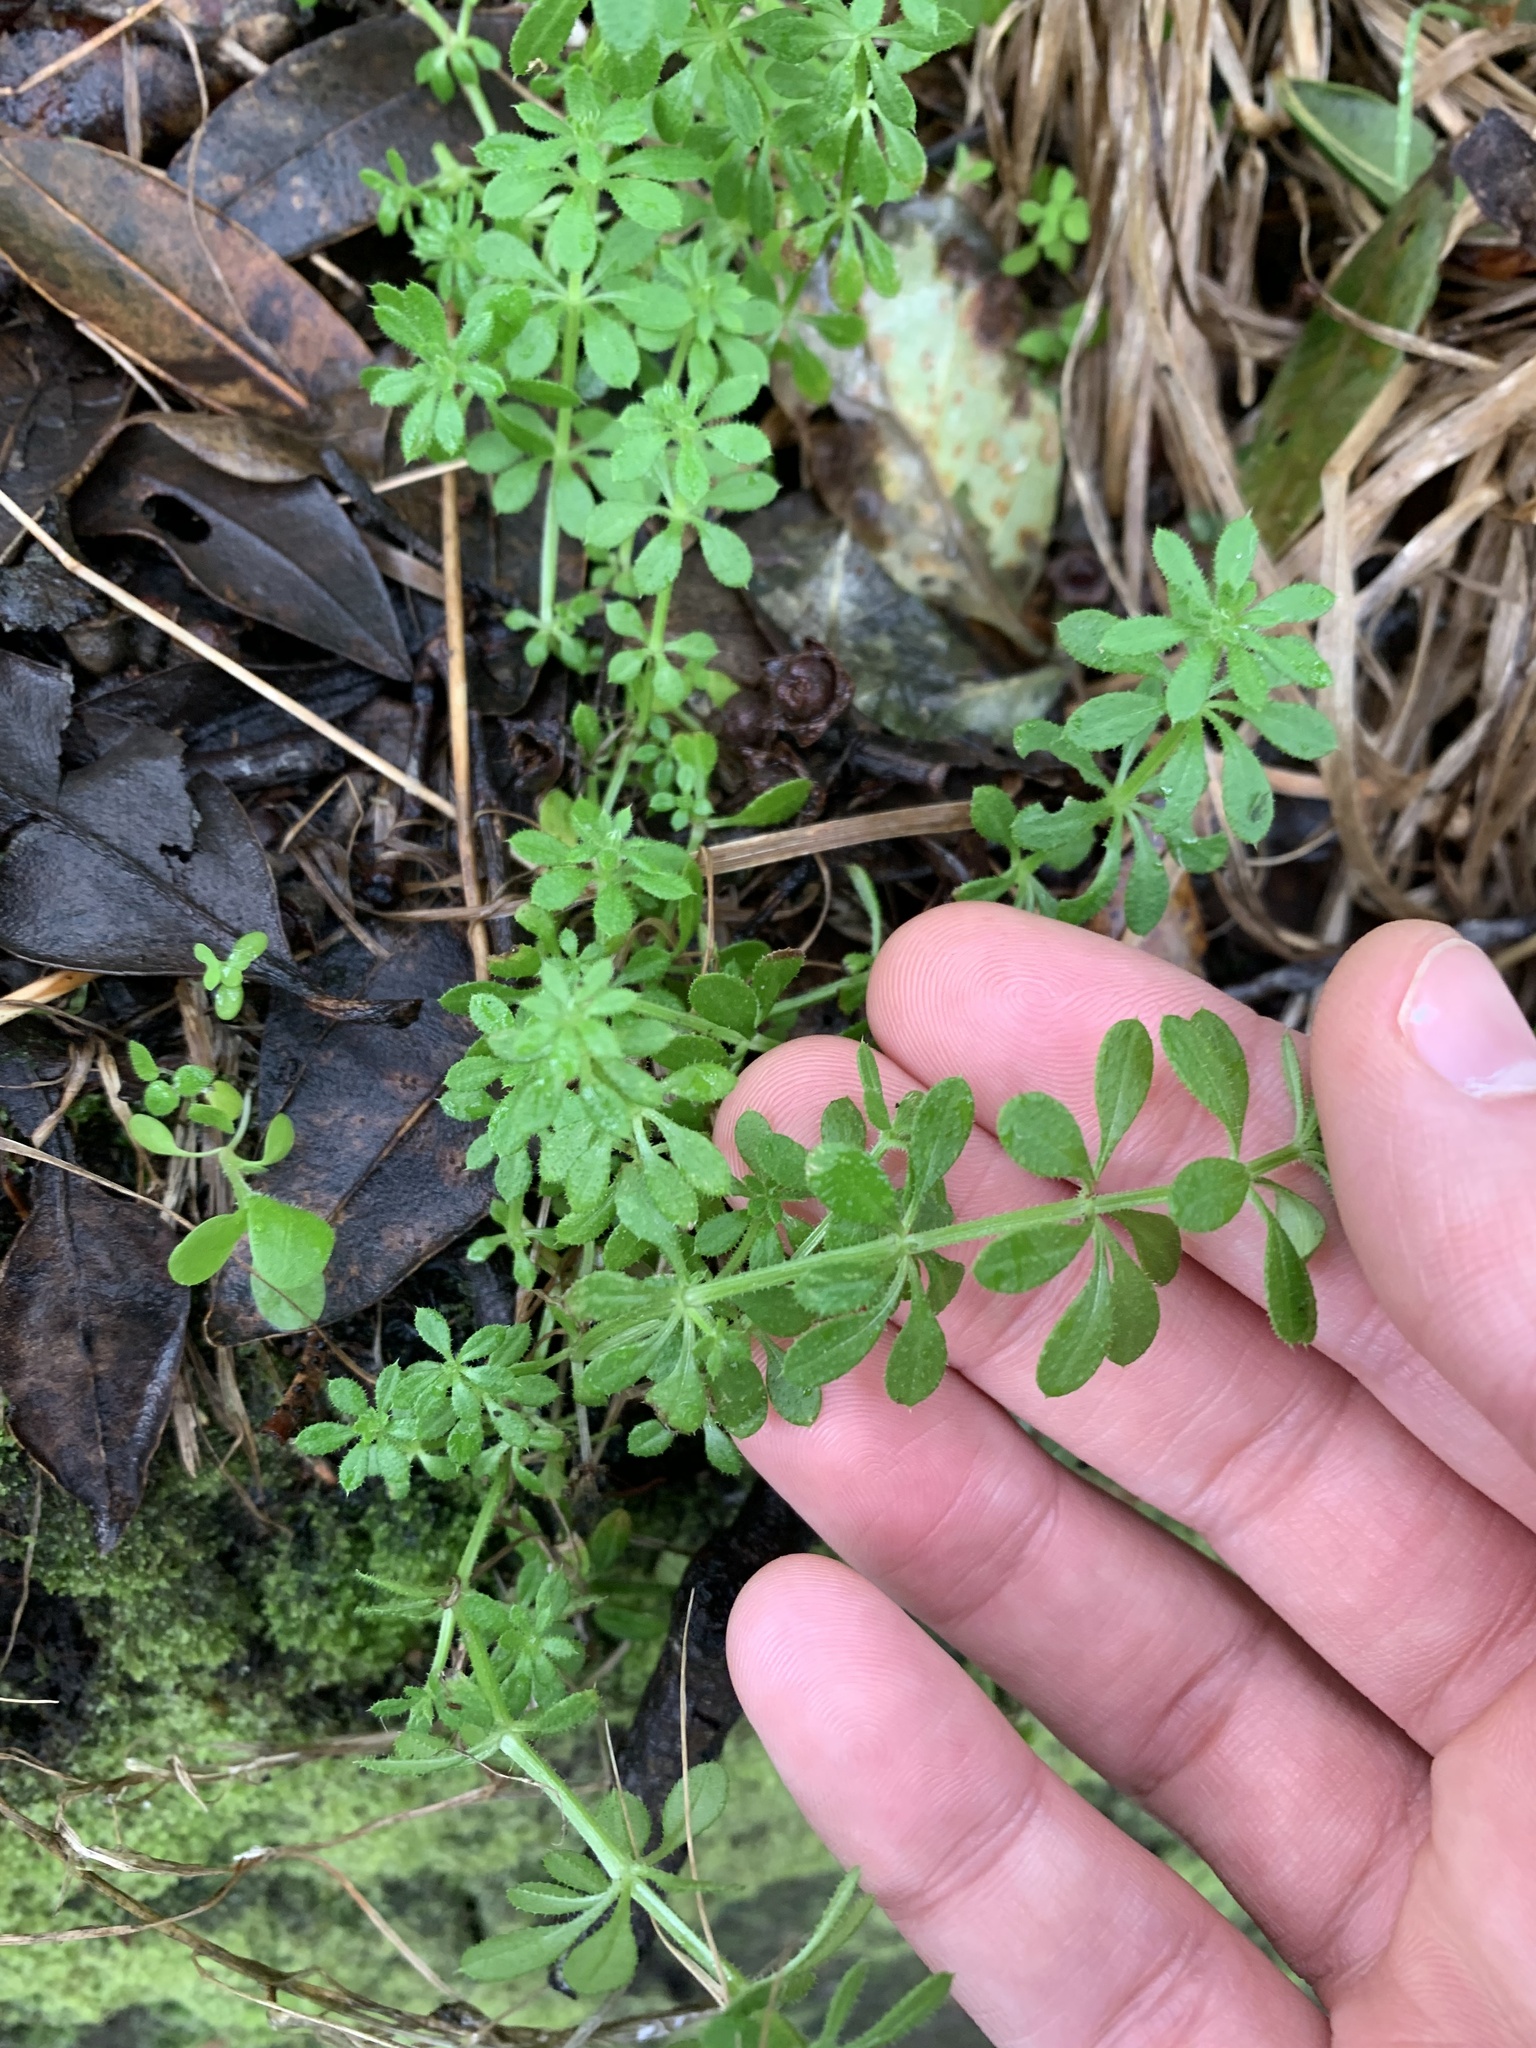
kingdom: Plantae
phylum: Tracheophyta
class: Magnoliopsida
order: Gentianales
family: Rubiaceae
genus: Galium
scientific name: Galium aparine
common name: Cleavers
